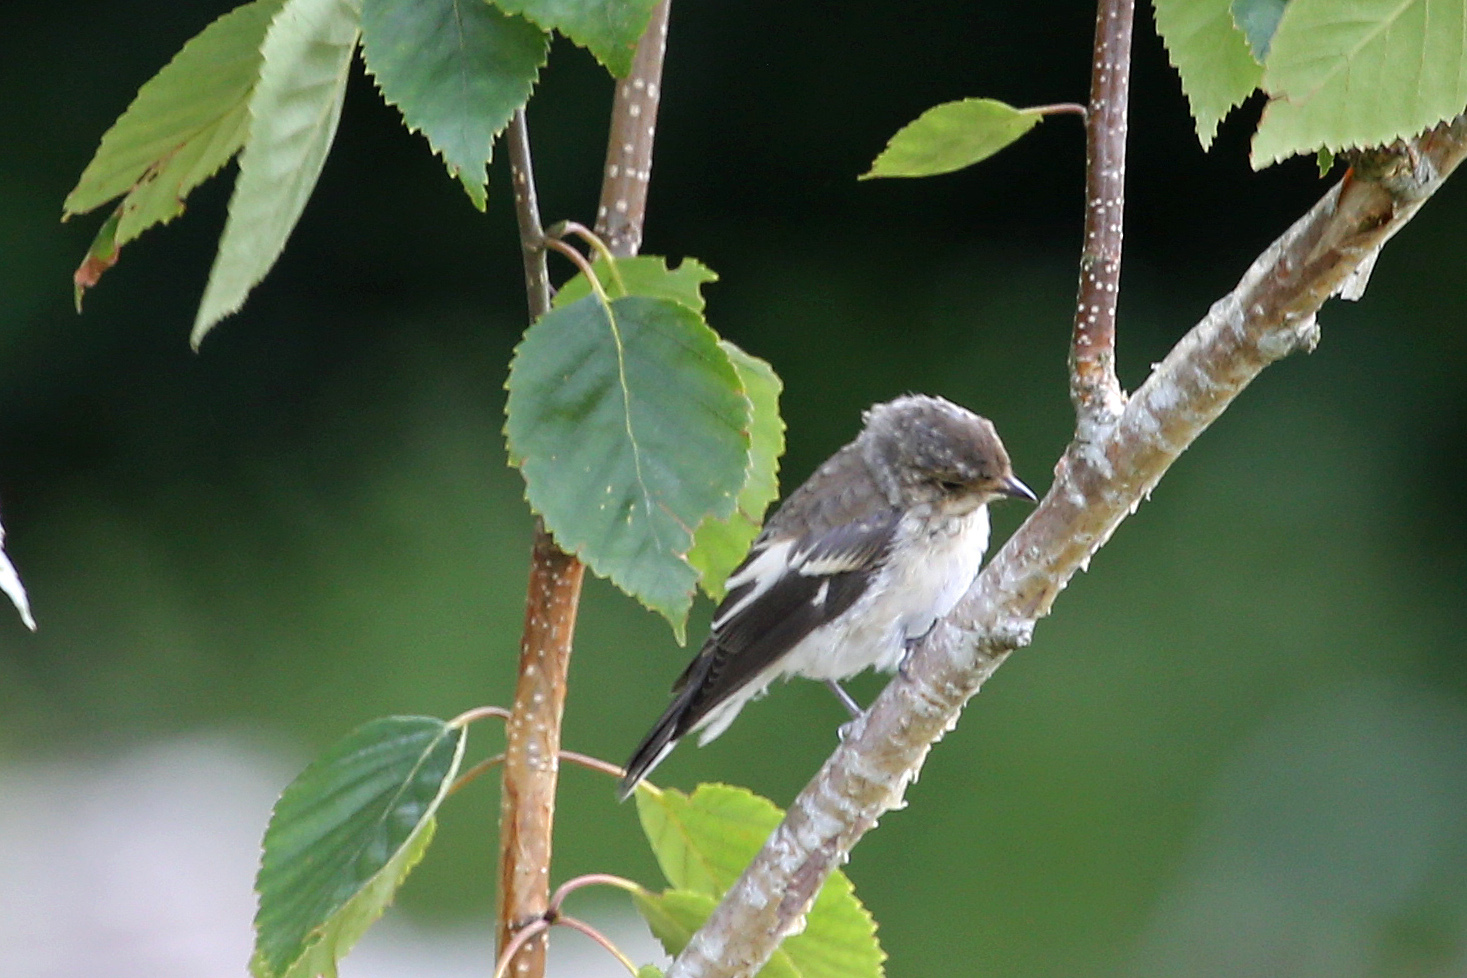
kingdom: Animalia
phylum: Chordata
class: Aves
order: Passeriformes
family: Muscicapidae
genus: Ficedula
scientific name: Ficedula hypoleuca
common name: European pied flycatcher
